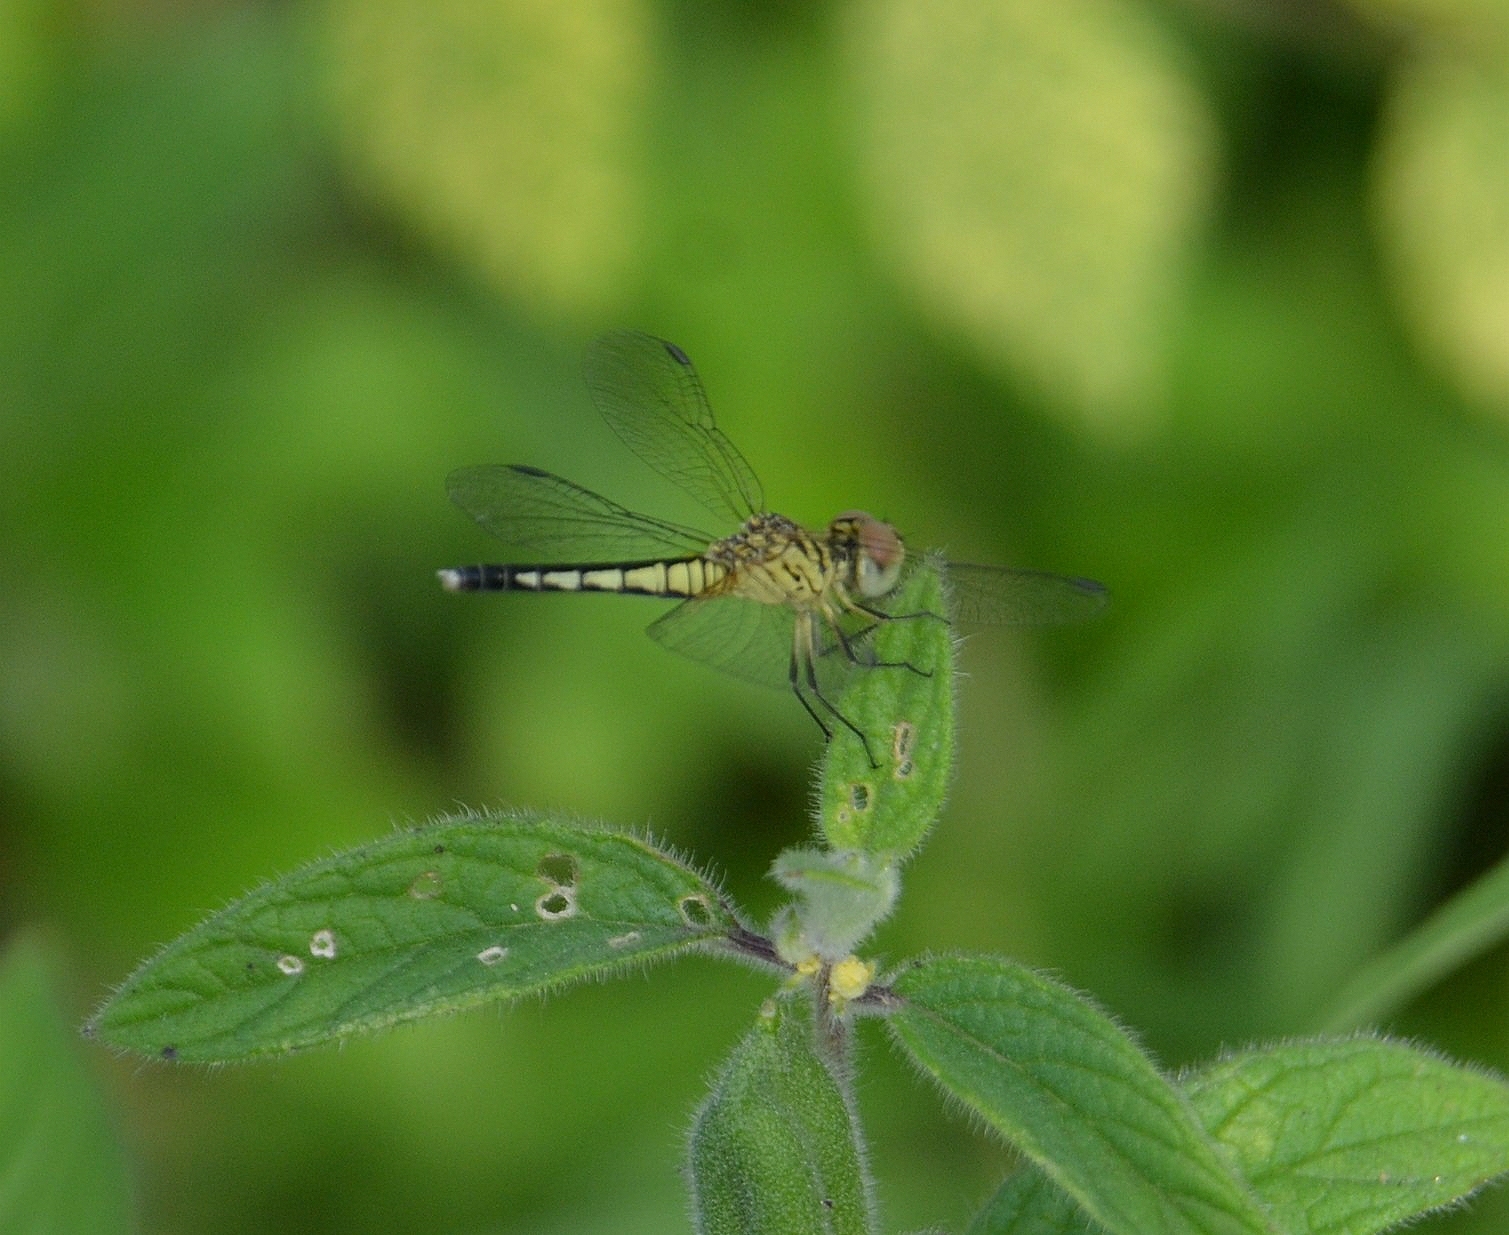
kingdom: Animalia
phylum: Arthropoda
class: Insecta
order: Odonata
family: Libellulidae
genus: Diplacodes
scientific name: Diplacodes nebulosa
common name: Black-tipped percher
